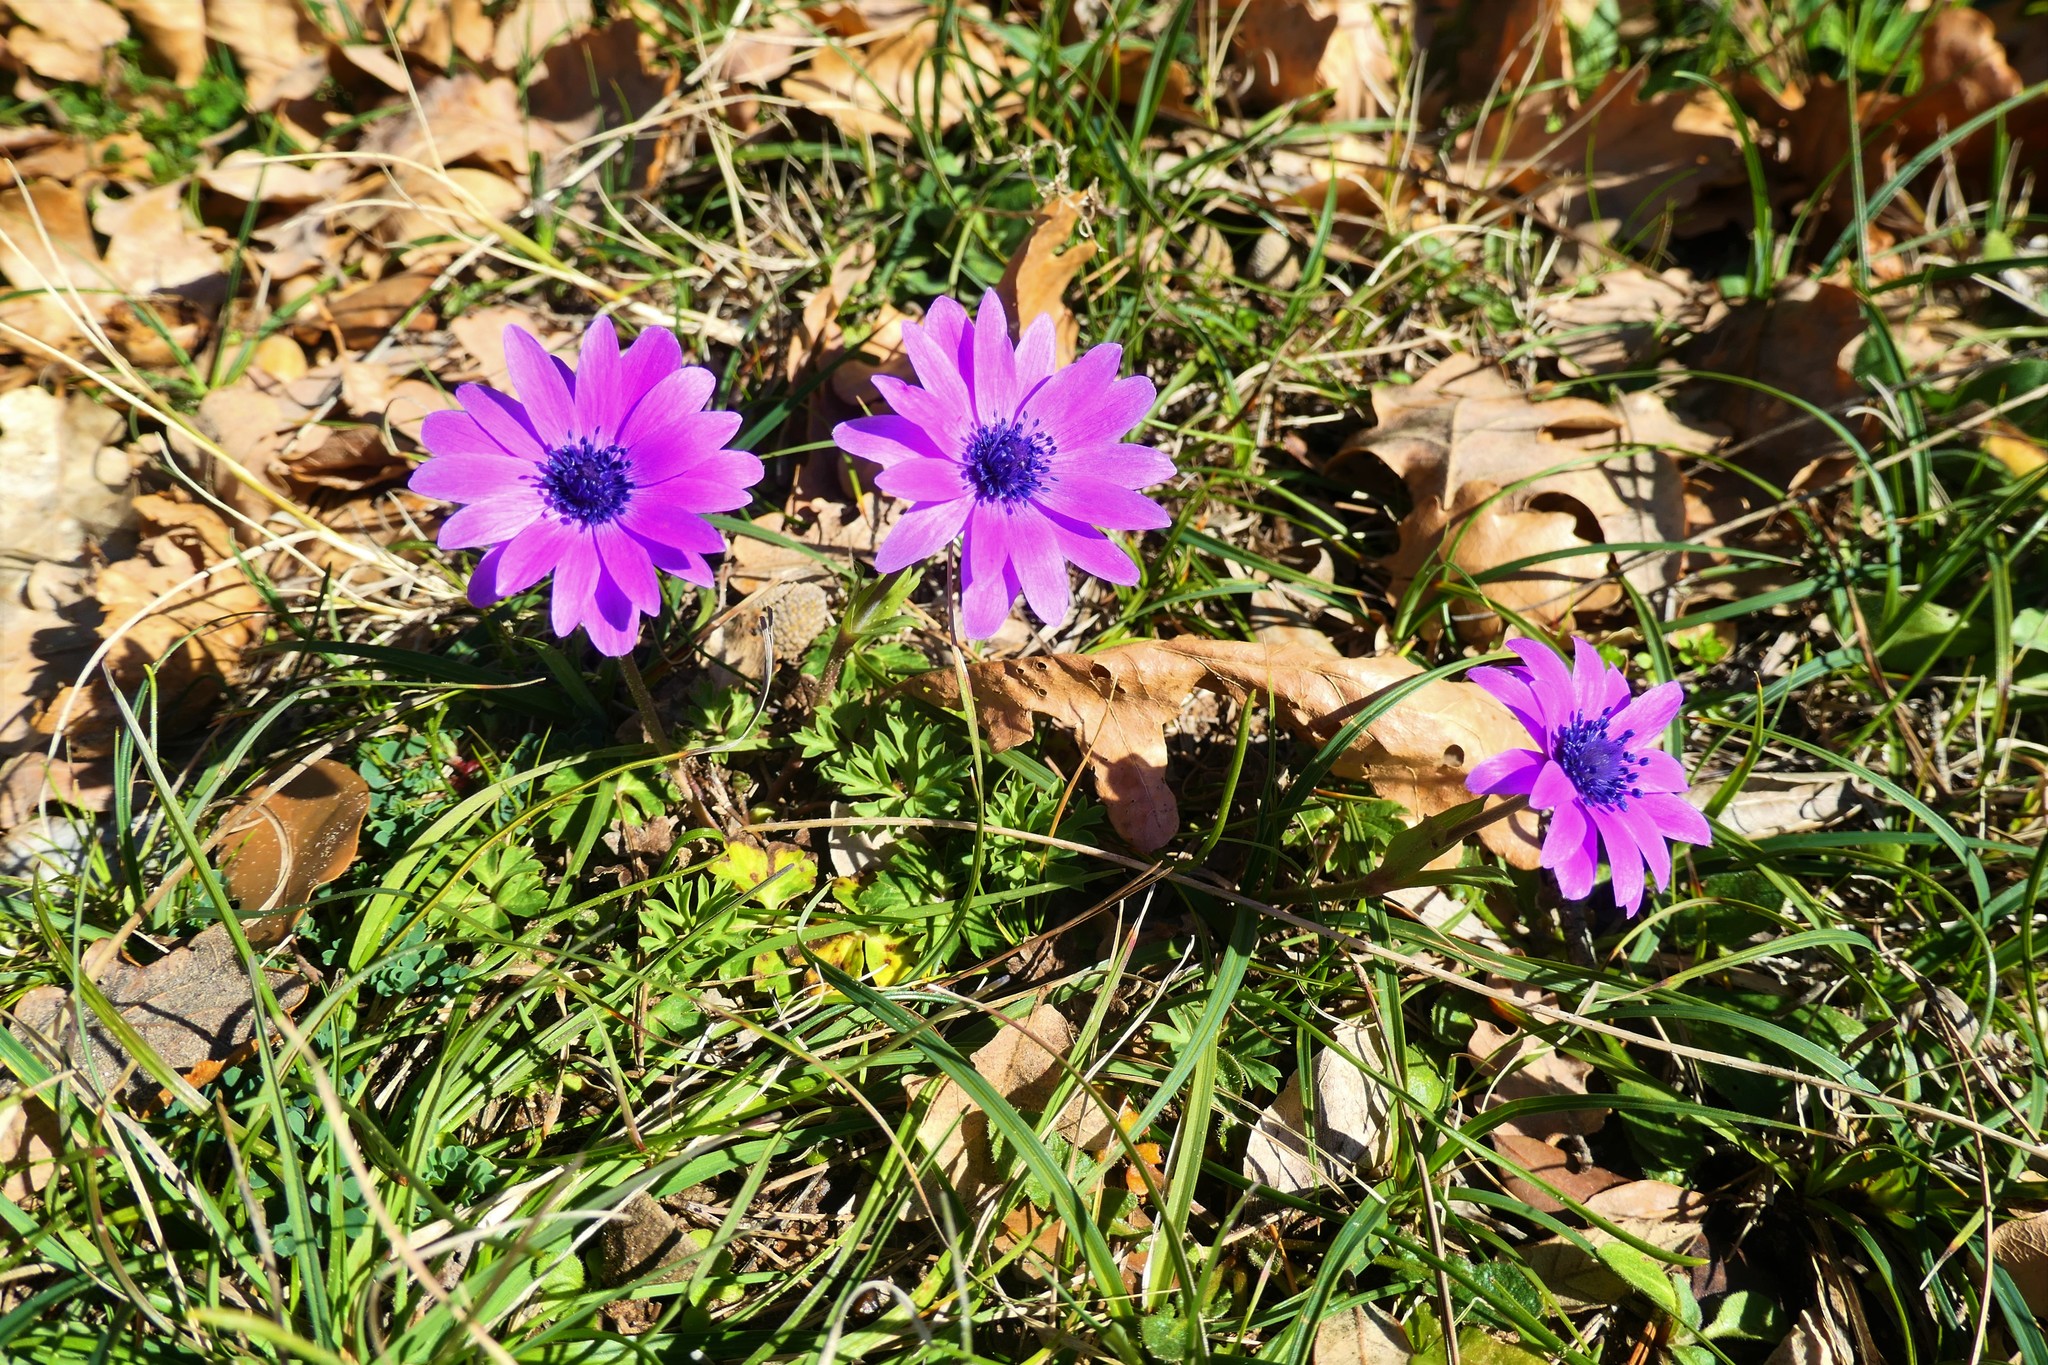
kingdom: Plantae
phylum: Tracheophyta
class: Magnoliopsida
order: Ranunculales
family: Ranunculaceae
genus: Anemone
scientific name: Anemone hortensis
